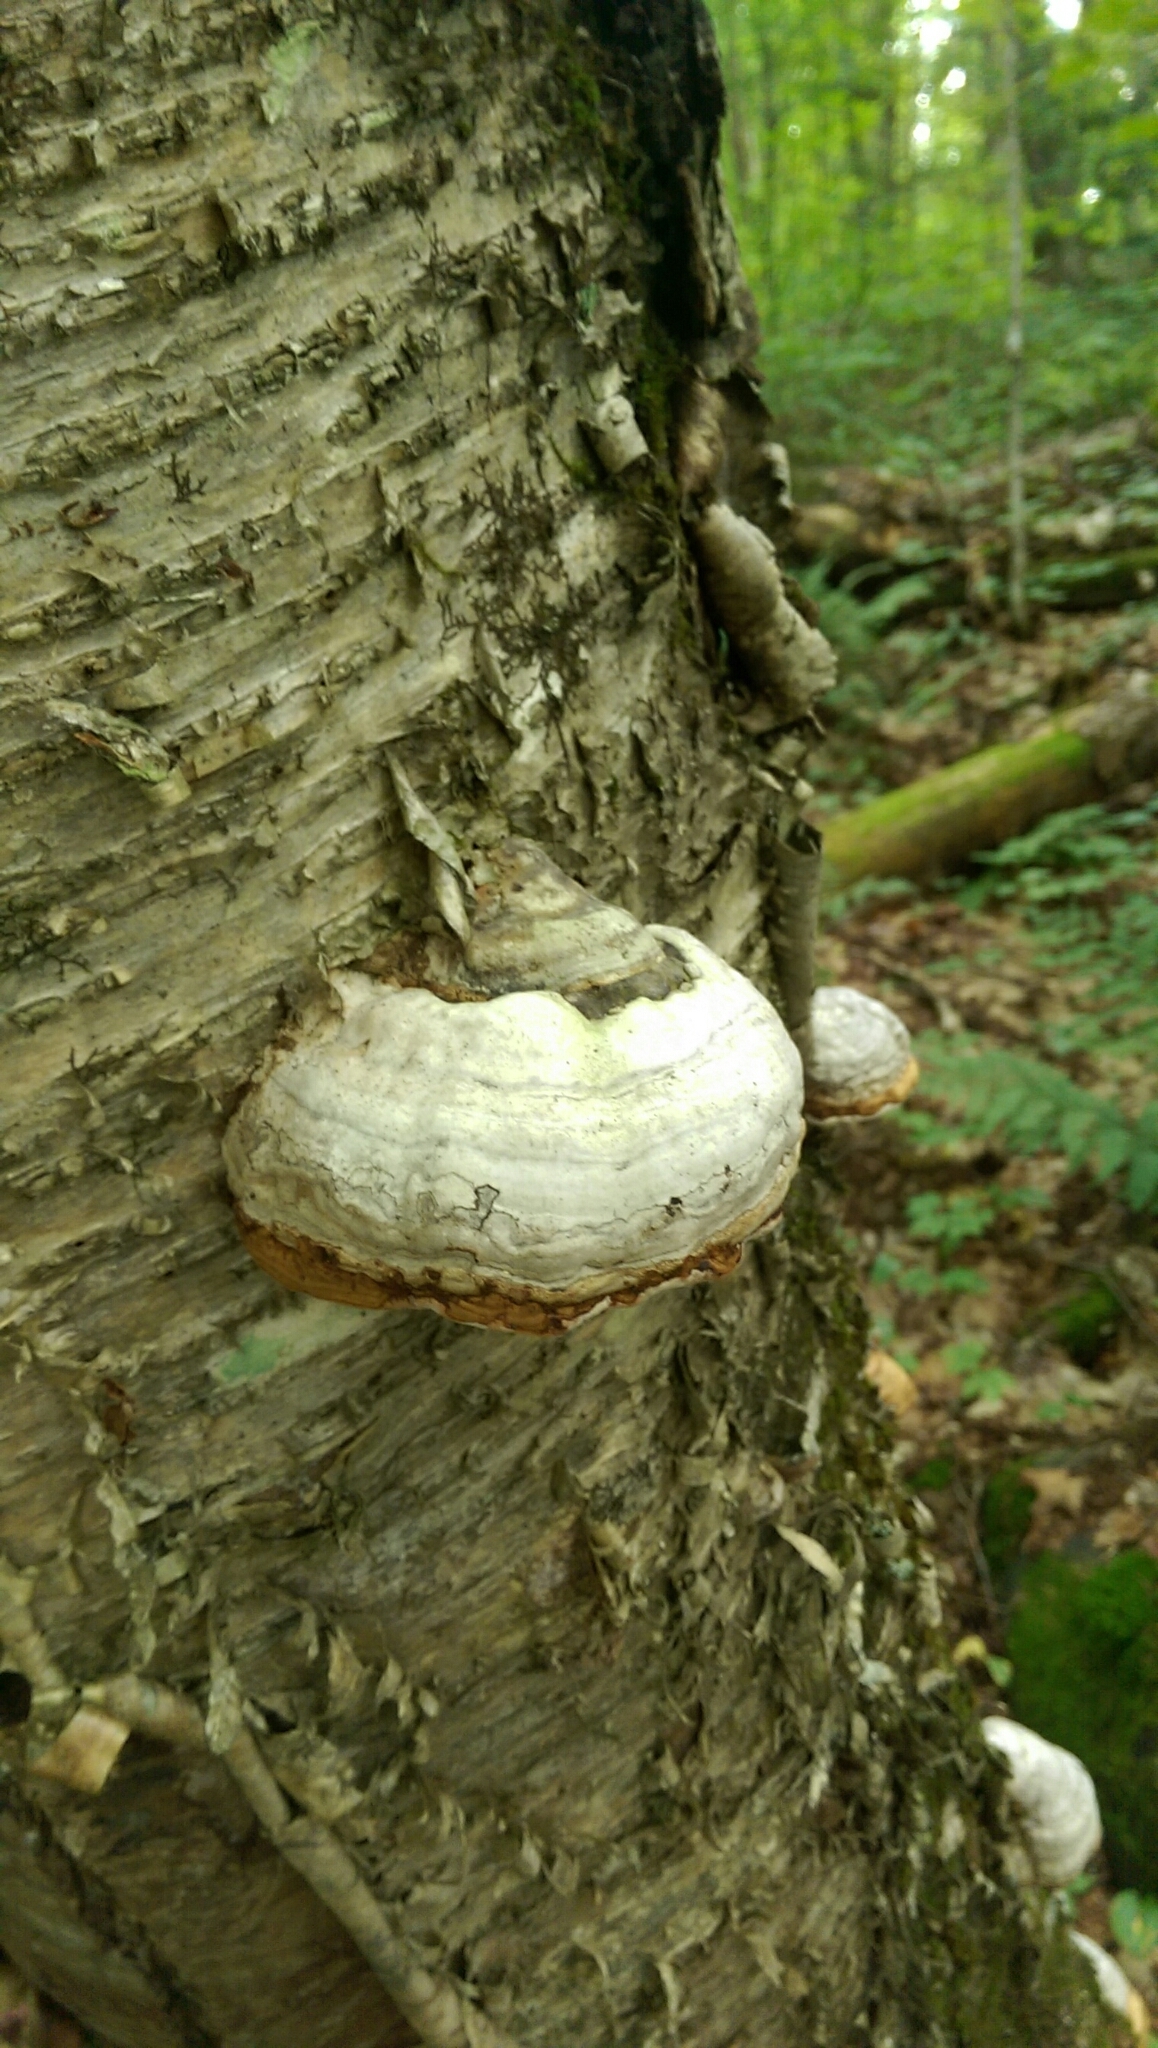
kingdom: Fungi
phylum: Basidiomycota
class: Agaricomycetes
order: Polyporales
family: Polyporaceae
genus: Fomes
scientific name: Fomes fomentarius
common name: Hoof fungus
